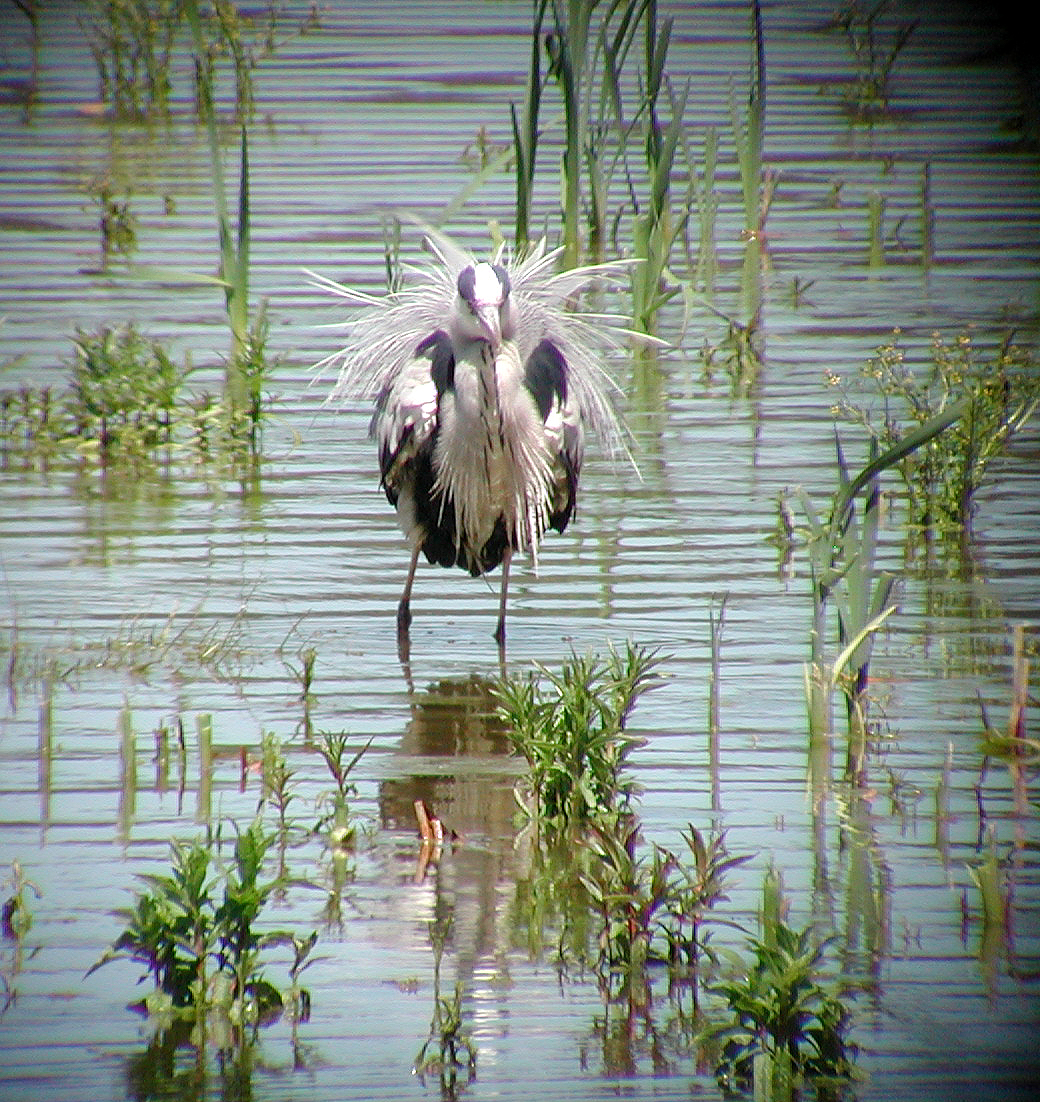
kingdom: Animalia
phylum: Chordata
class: Aves
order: Pelecaniformes
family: Ardeidae
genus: Ardea
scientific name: Ardea cinerea
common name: Grey heron
